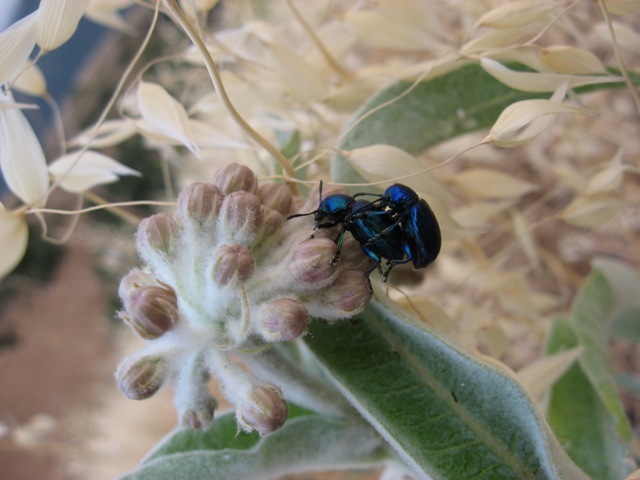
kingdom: Animalia
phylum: Arthropoda
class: Insecta
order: Coleoptera
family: Chrysomelidae
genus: Chrysochus
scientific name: Chrysochus cobaltinus
